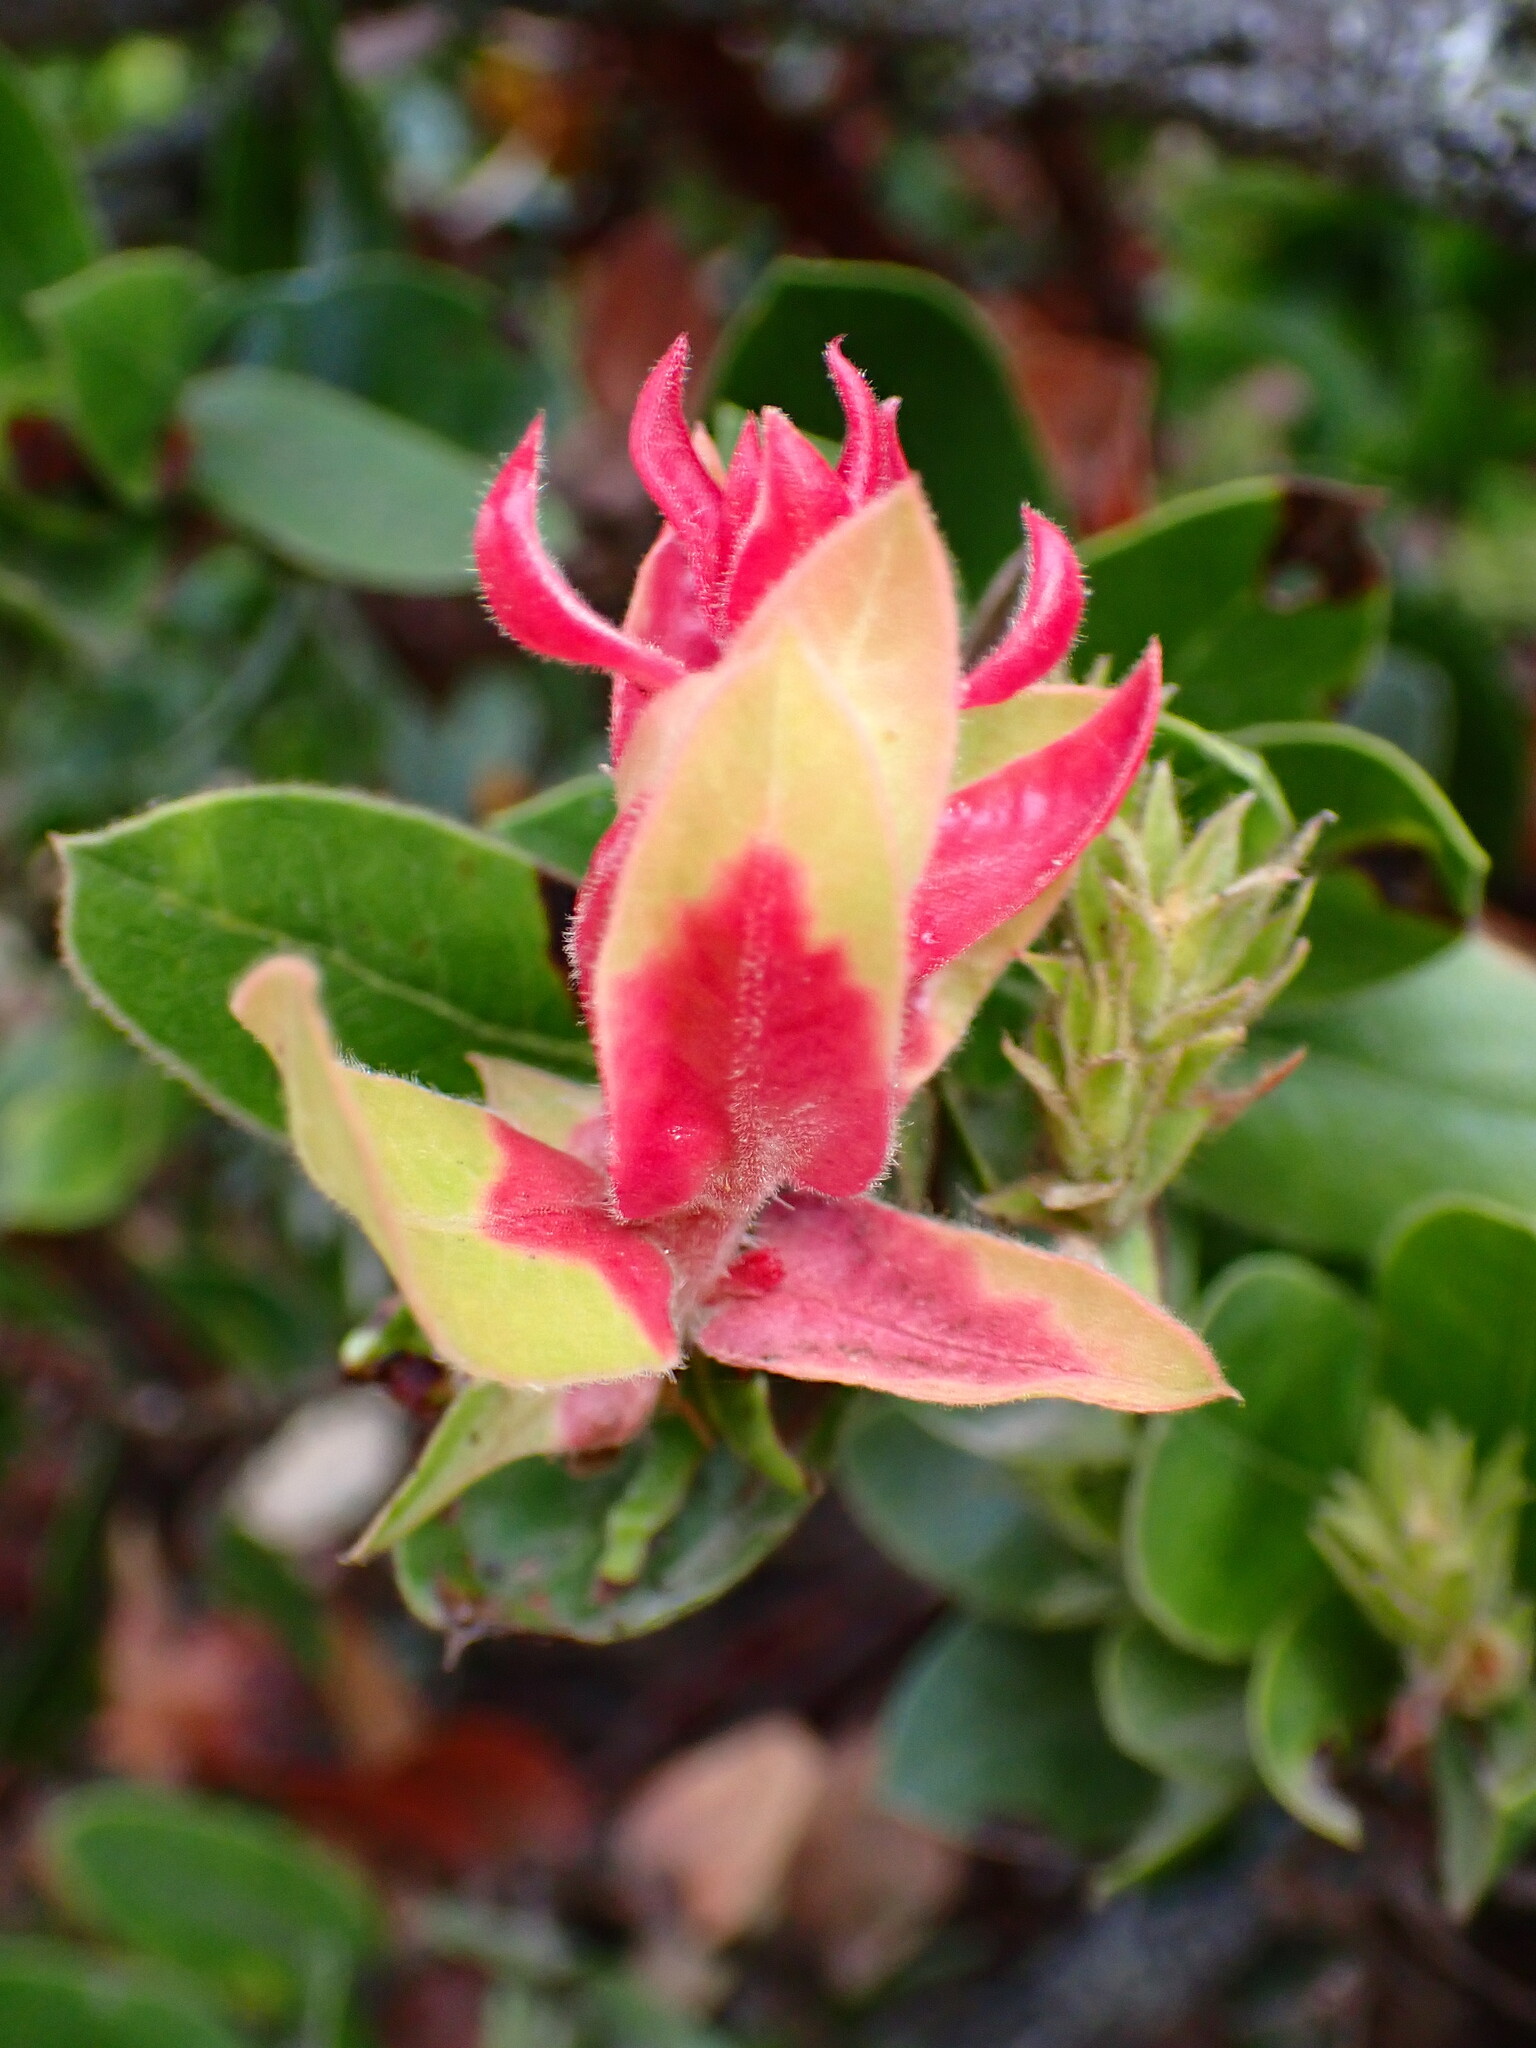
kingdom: Fungi
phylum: Basidiomycota
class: Exobasidiomycetes
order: Exobasidiales
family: Exobasidiaceae
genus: Exobasidium
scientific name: Exobasidium arctostaphyli
